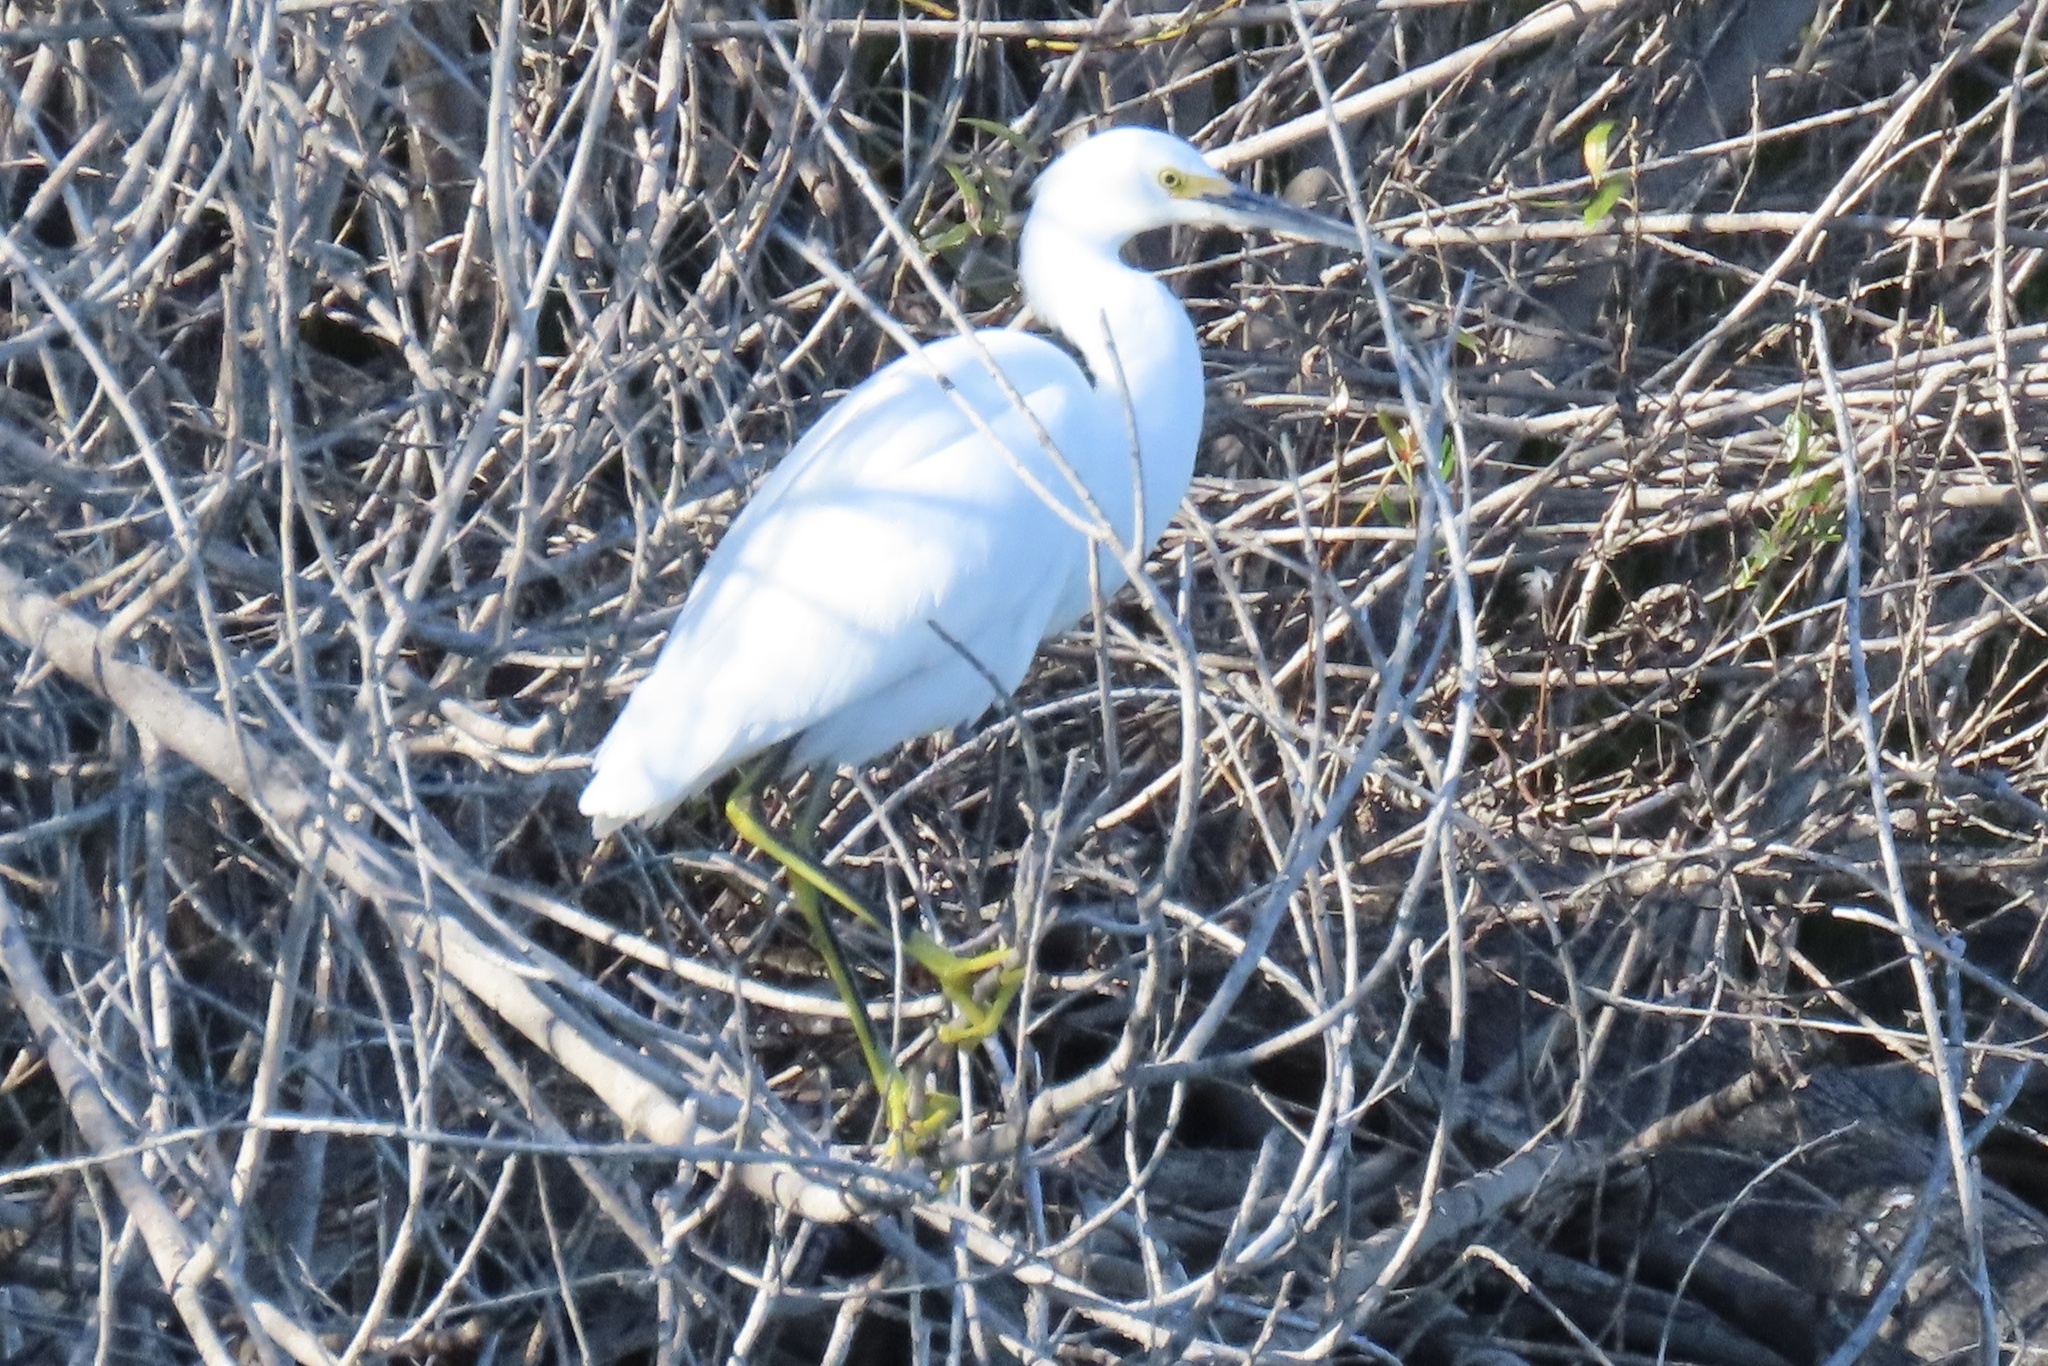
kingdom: Animalia
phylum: Chordata
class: Aves
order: Pelecaniformes
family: Ardeidae
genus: Egretta
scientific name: Egretta thula
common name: Snowy egret
